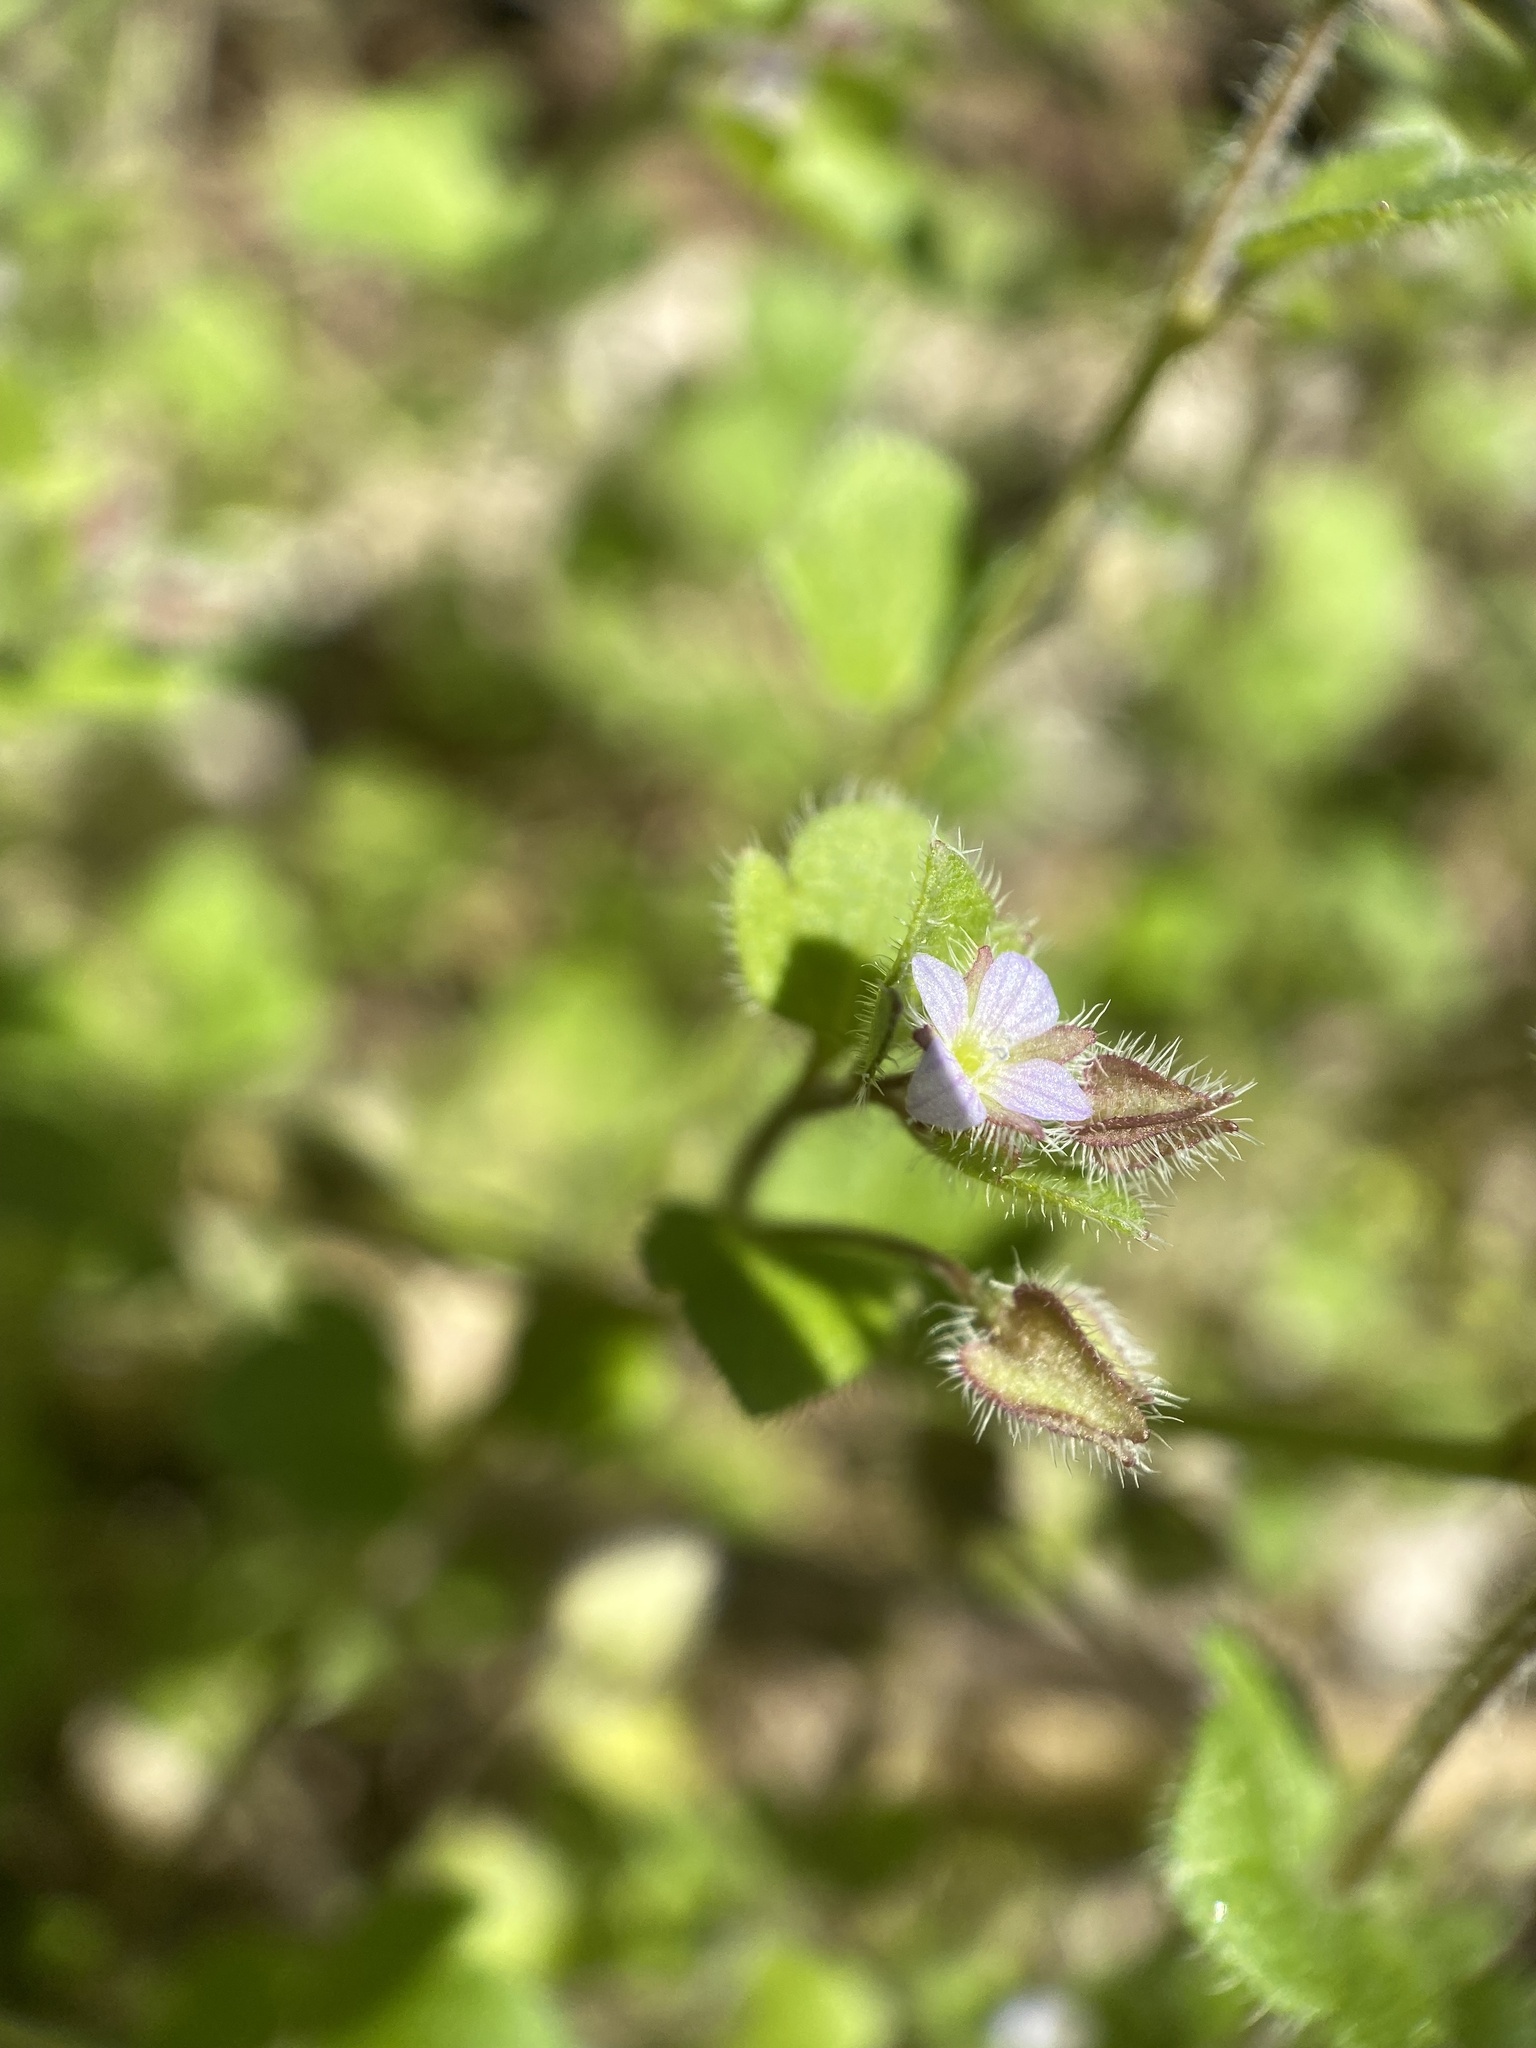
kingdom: Plantae
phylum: Tracheophyta
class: Magnoliopsida
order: Lamiales
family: Plantaginaceae
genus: Veronica
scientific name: Veronica hederifolia
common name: Ivy-leaved speedwell
